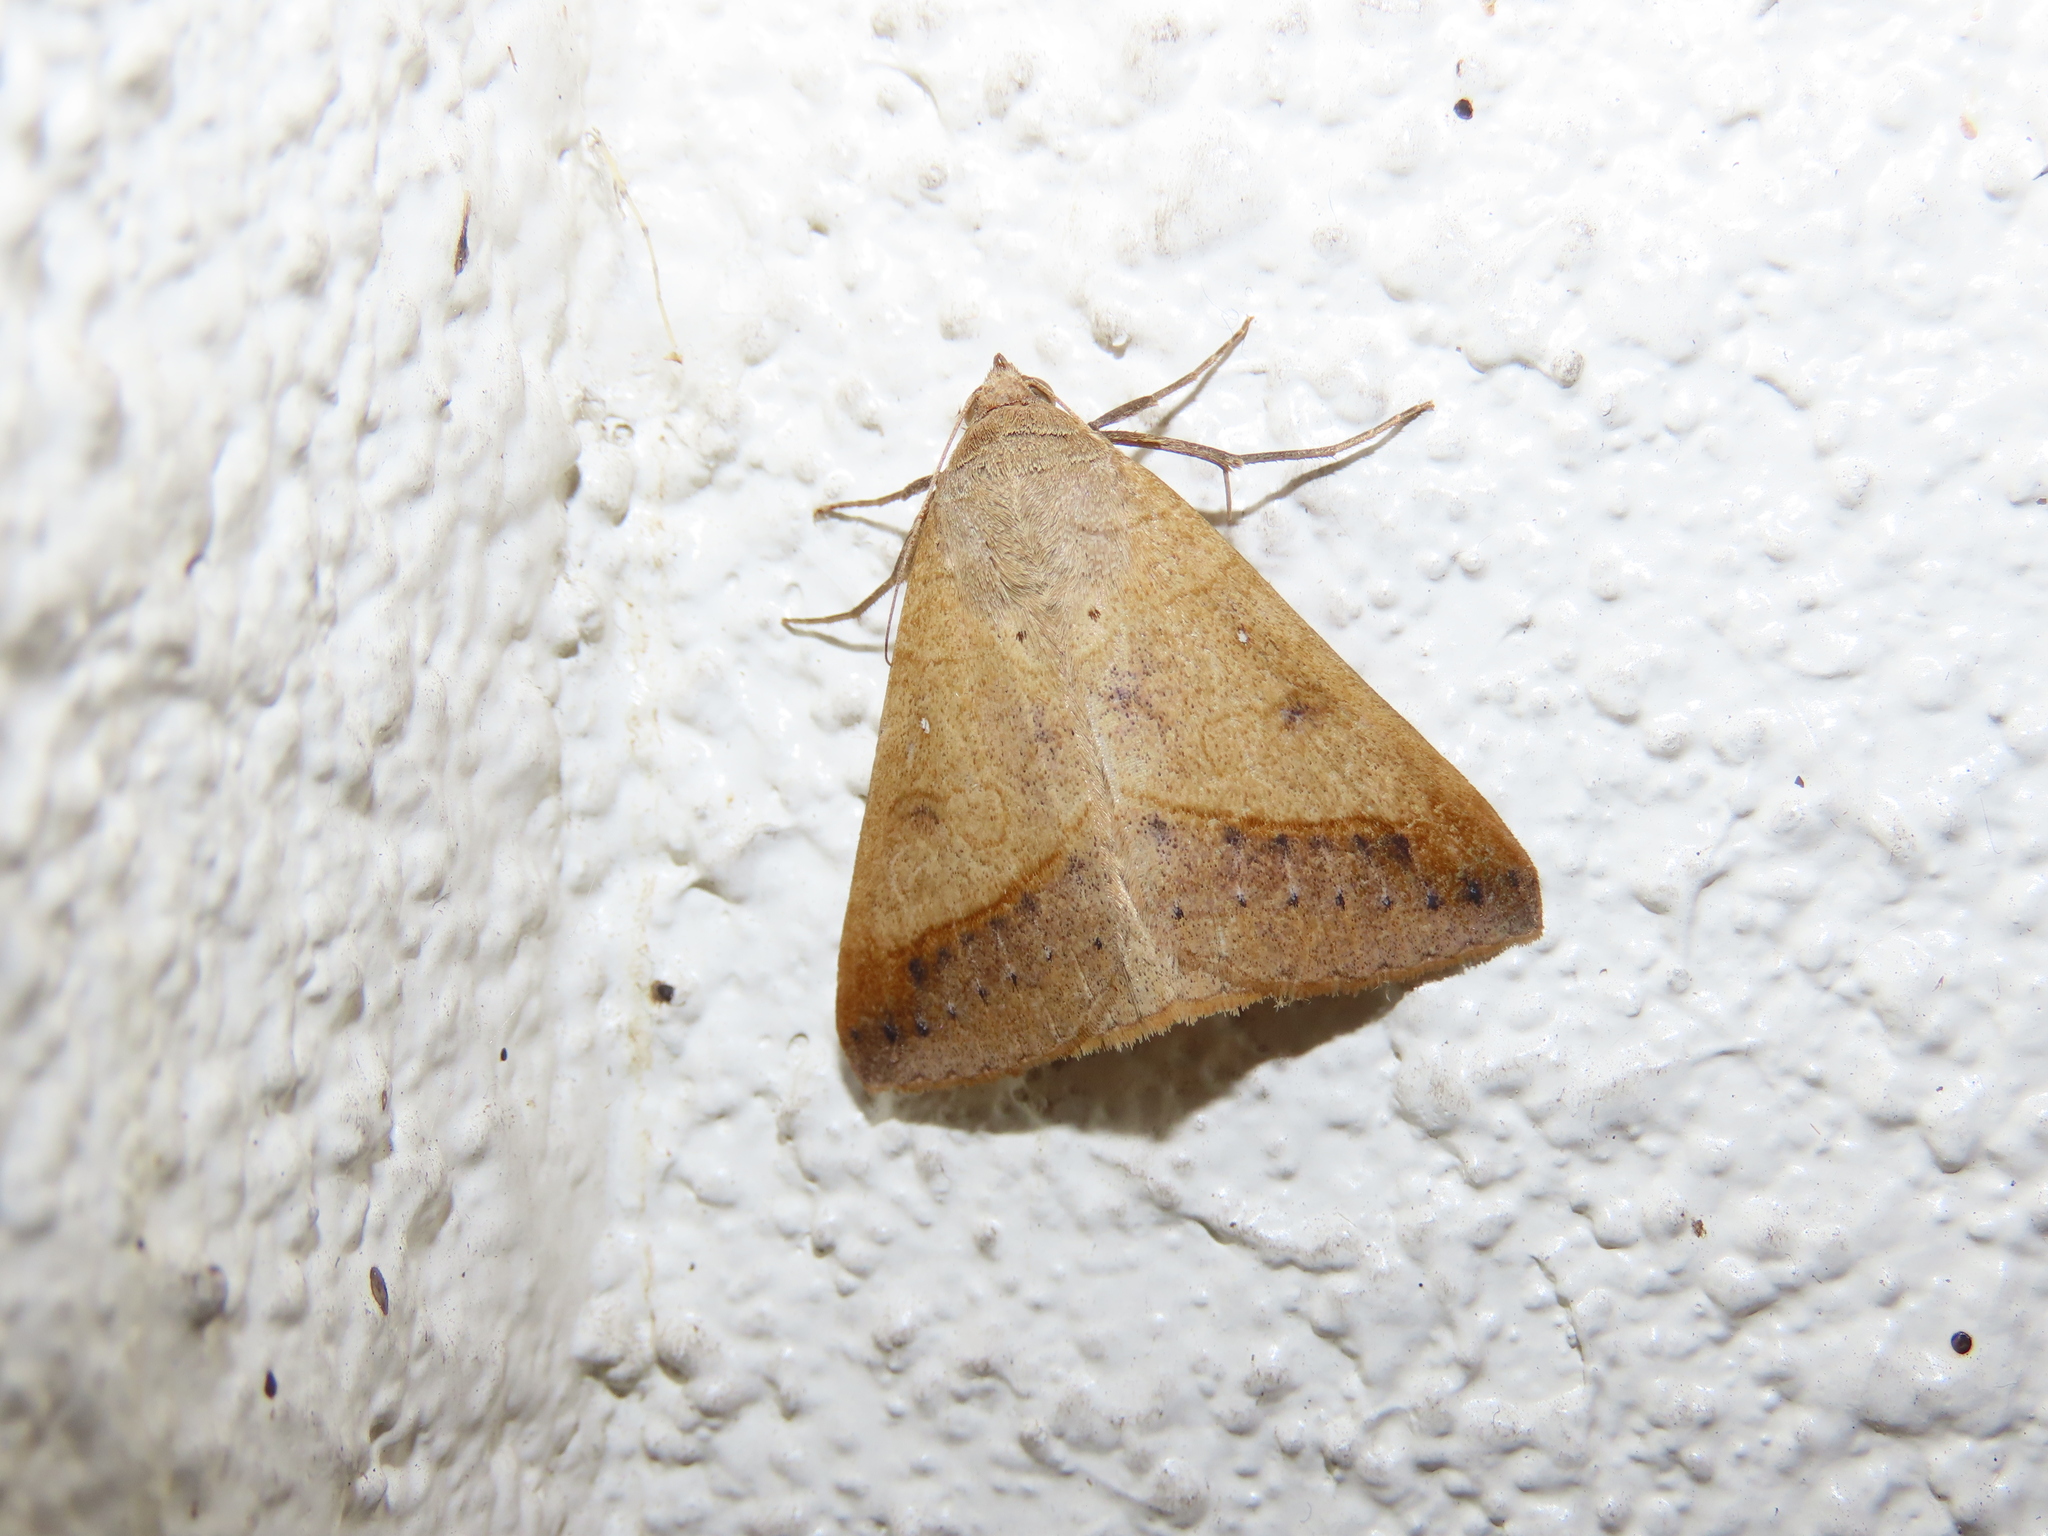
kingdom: Animalia
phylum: Arthropoda
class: Insecta
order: Lepidoptera
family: Erebidae
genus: Mocis
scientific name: Mocis disseverans
